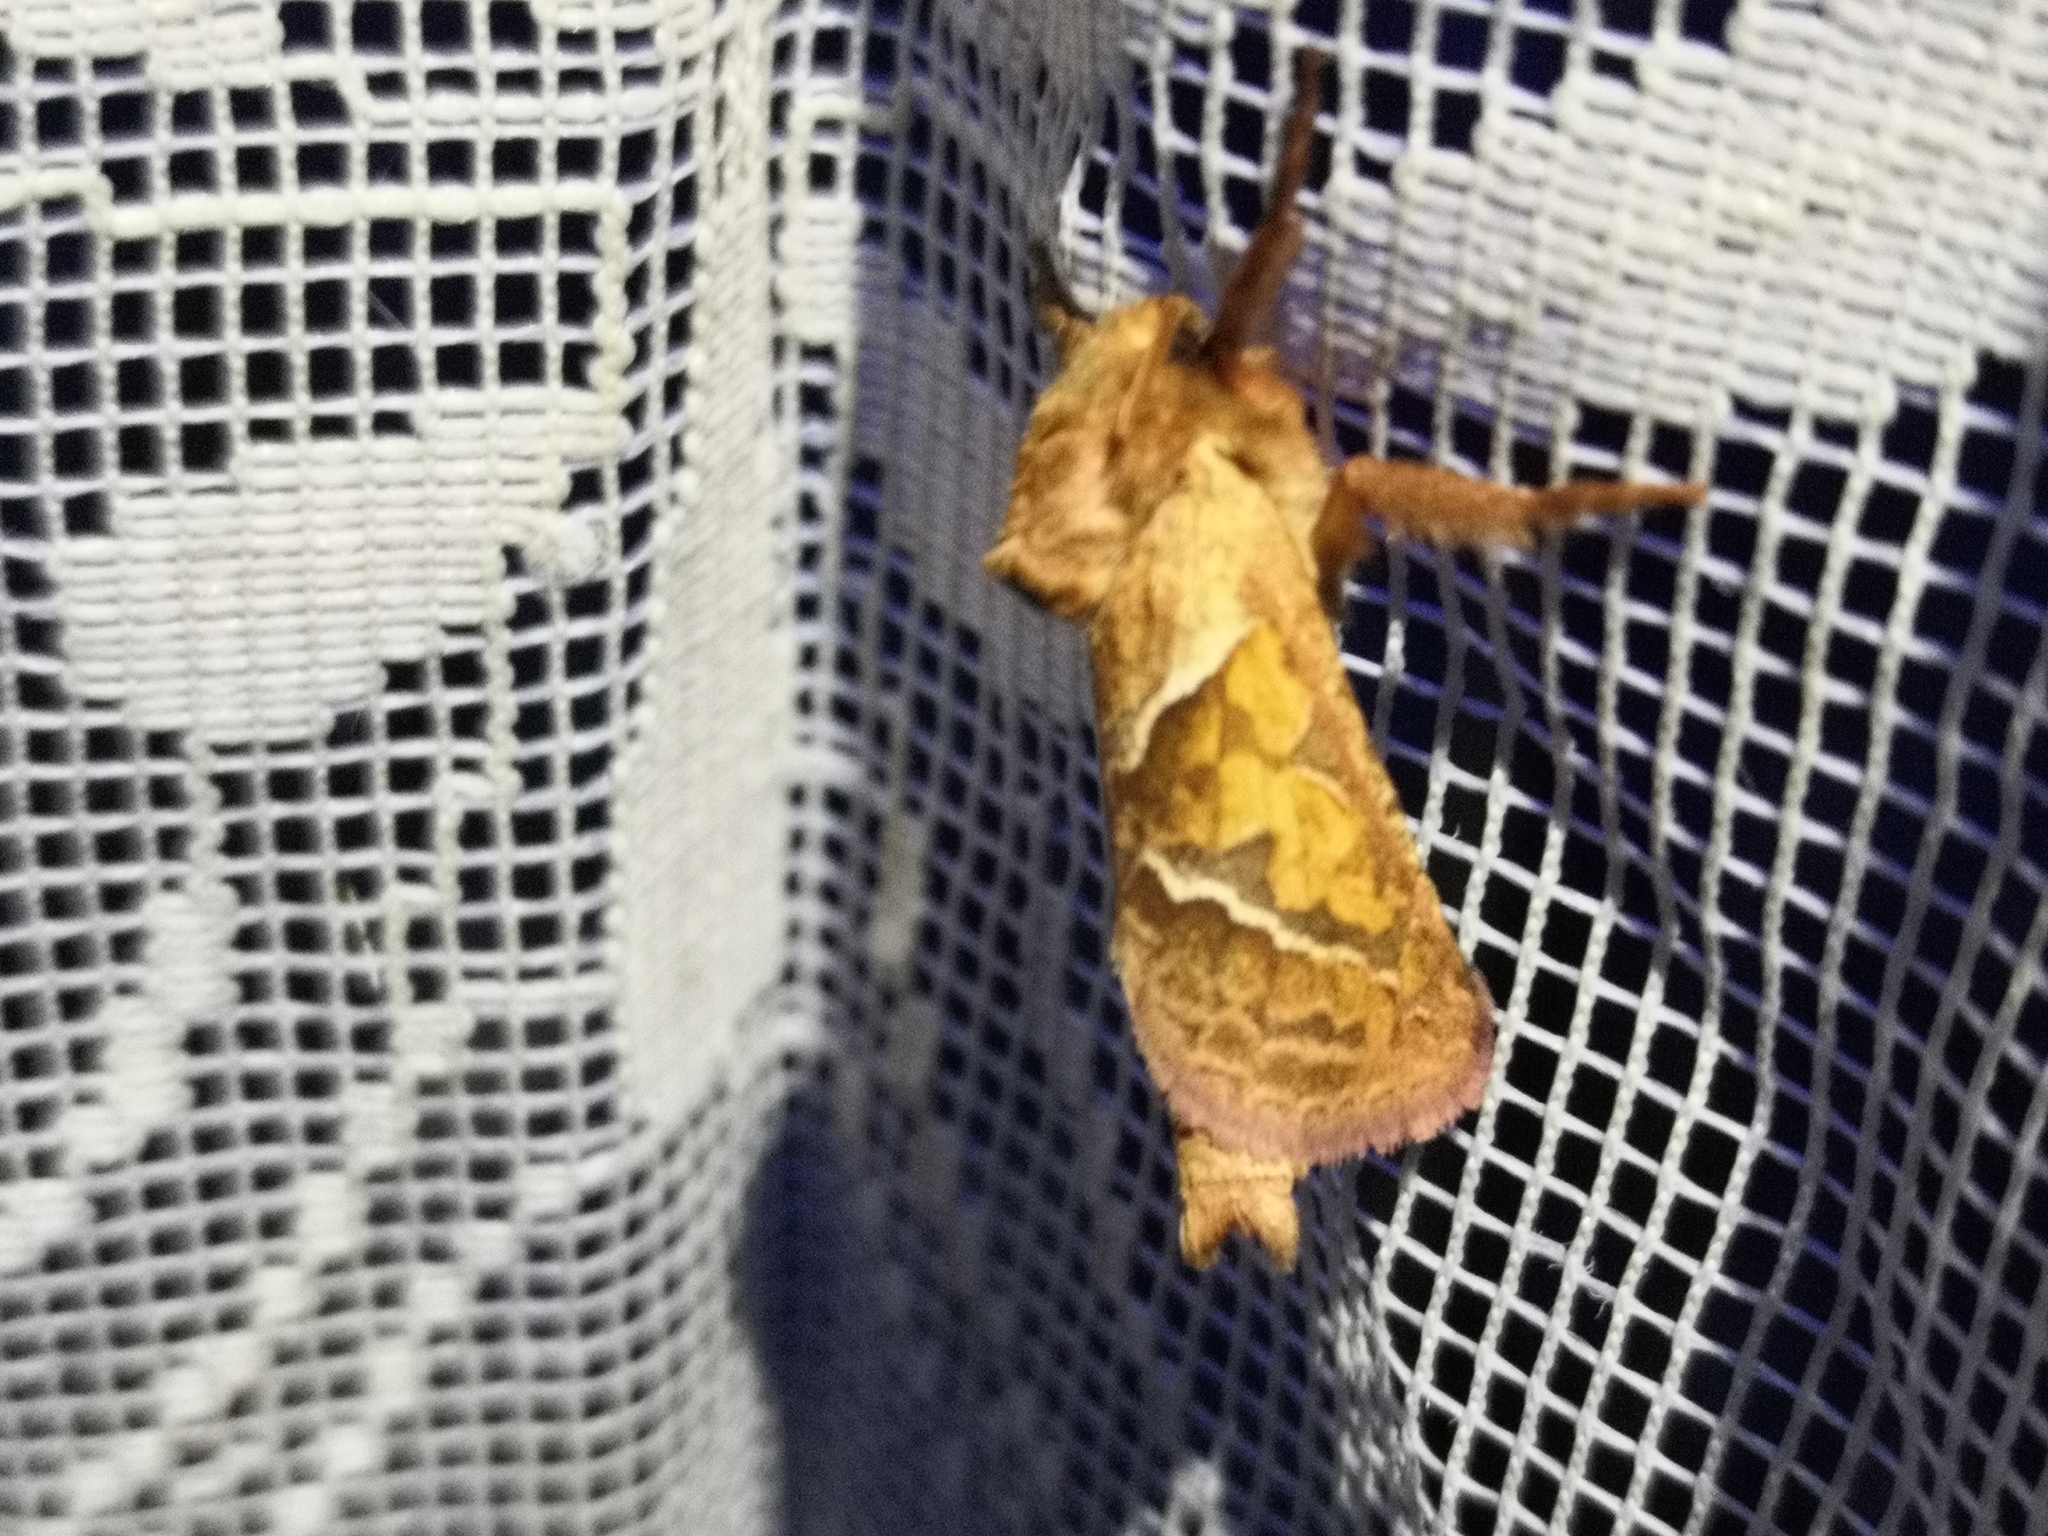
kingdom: Animalia
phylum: Arthropoda
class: Insecta
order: Lepidoptera
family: Hepialidae
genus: Triodia
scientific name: Triodia sylvina
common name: Orange swift
